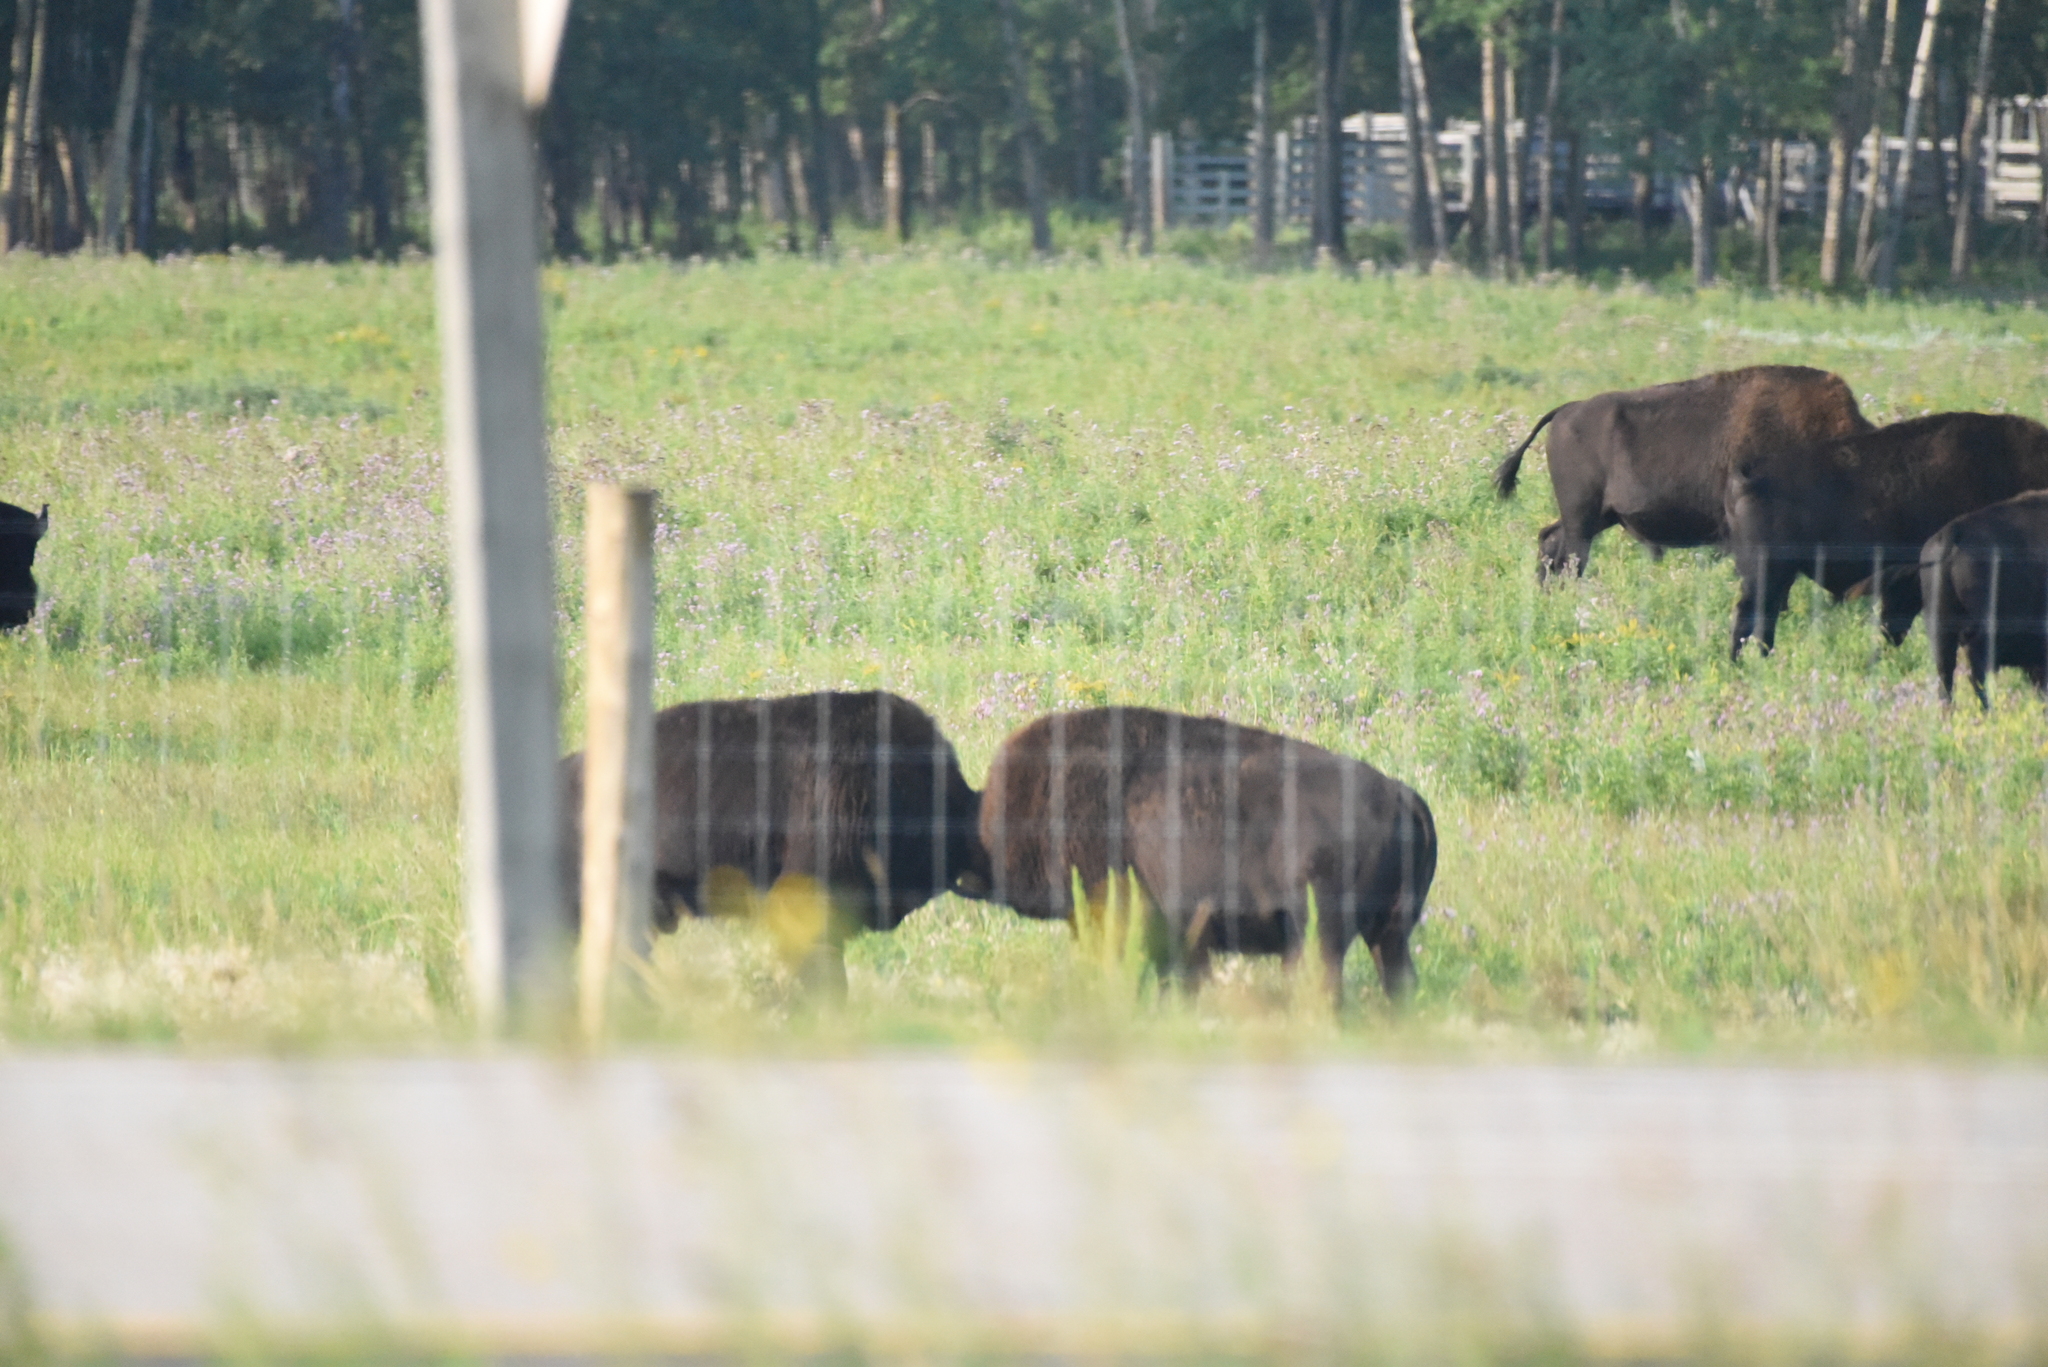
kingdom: Animalia
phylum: Chordata
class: Mammalia
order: Artiodactyla
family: Bovidae
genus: Bison
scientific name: Bison bison
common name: American bison
